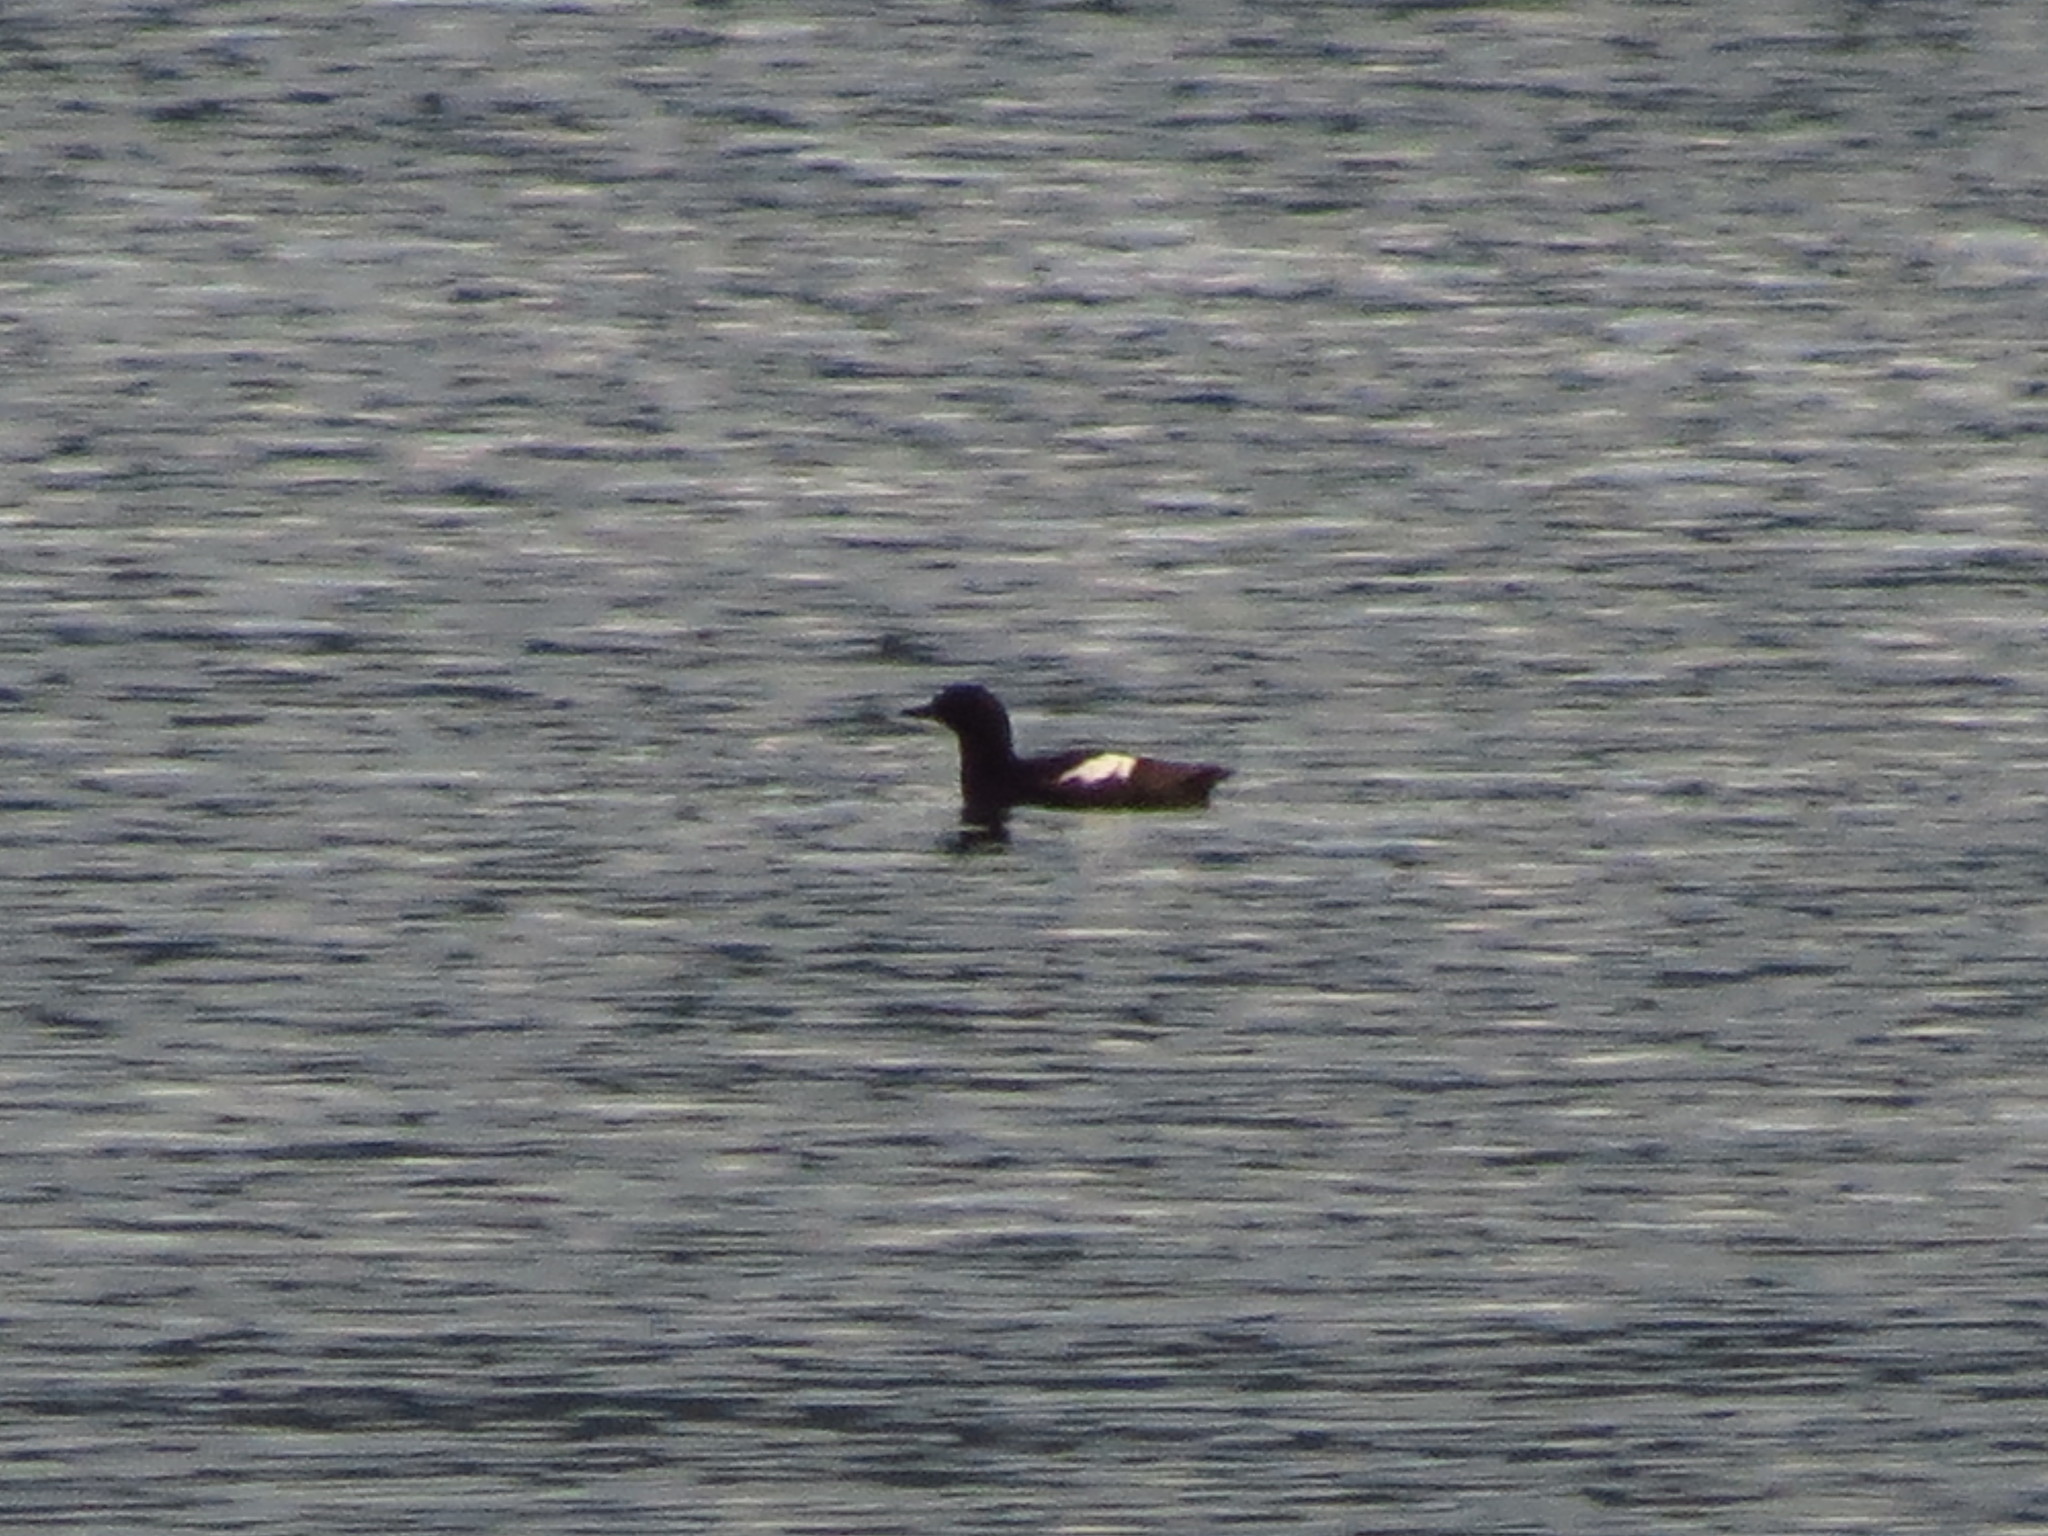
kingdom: Animalia
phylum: Chordata
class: Aves
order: Charadriiformes
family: Alcidae
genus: Cepphus
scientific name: Cepphus columba
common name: Pigeon guillemot
